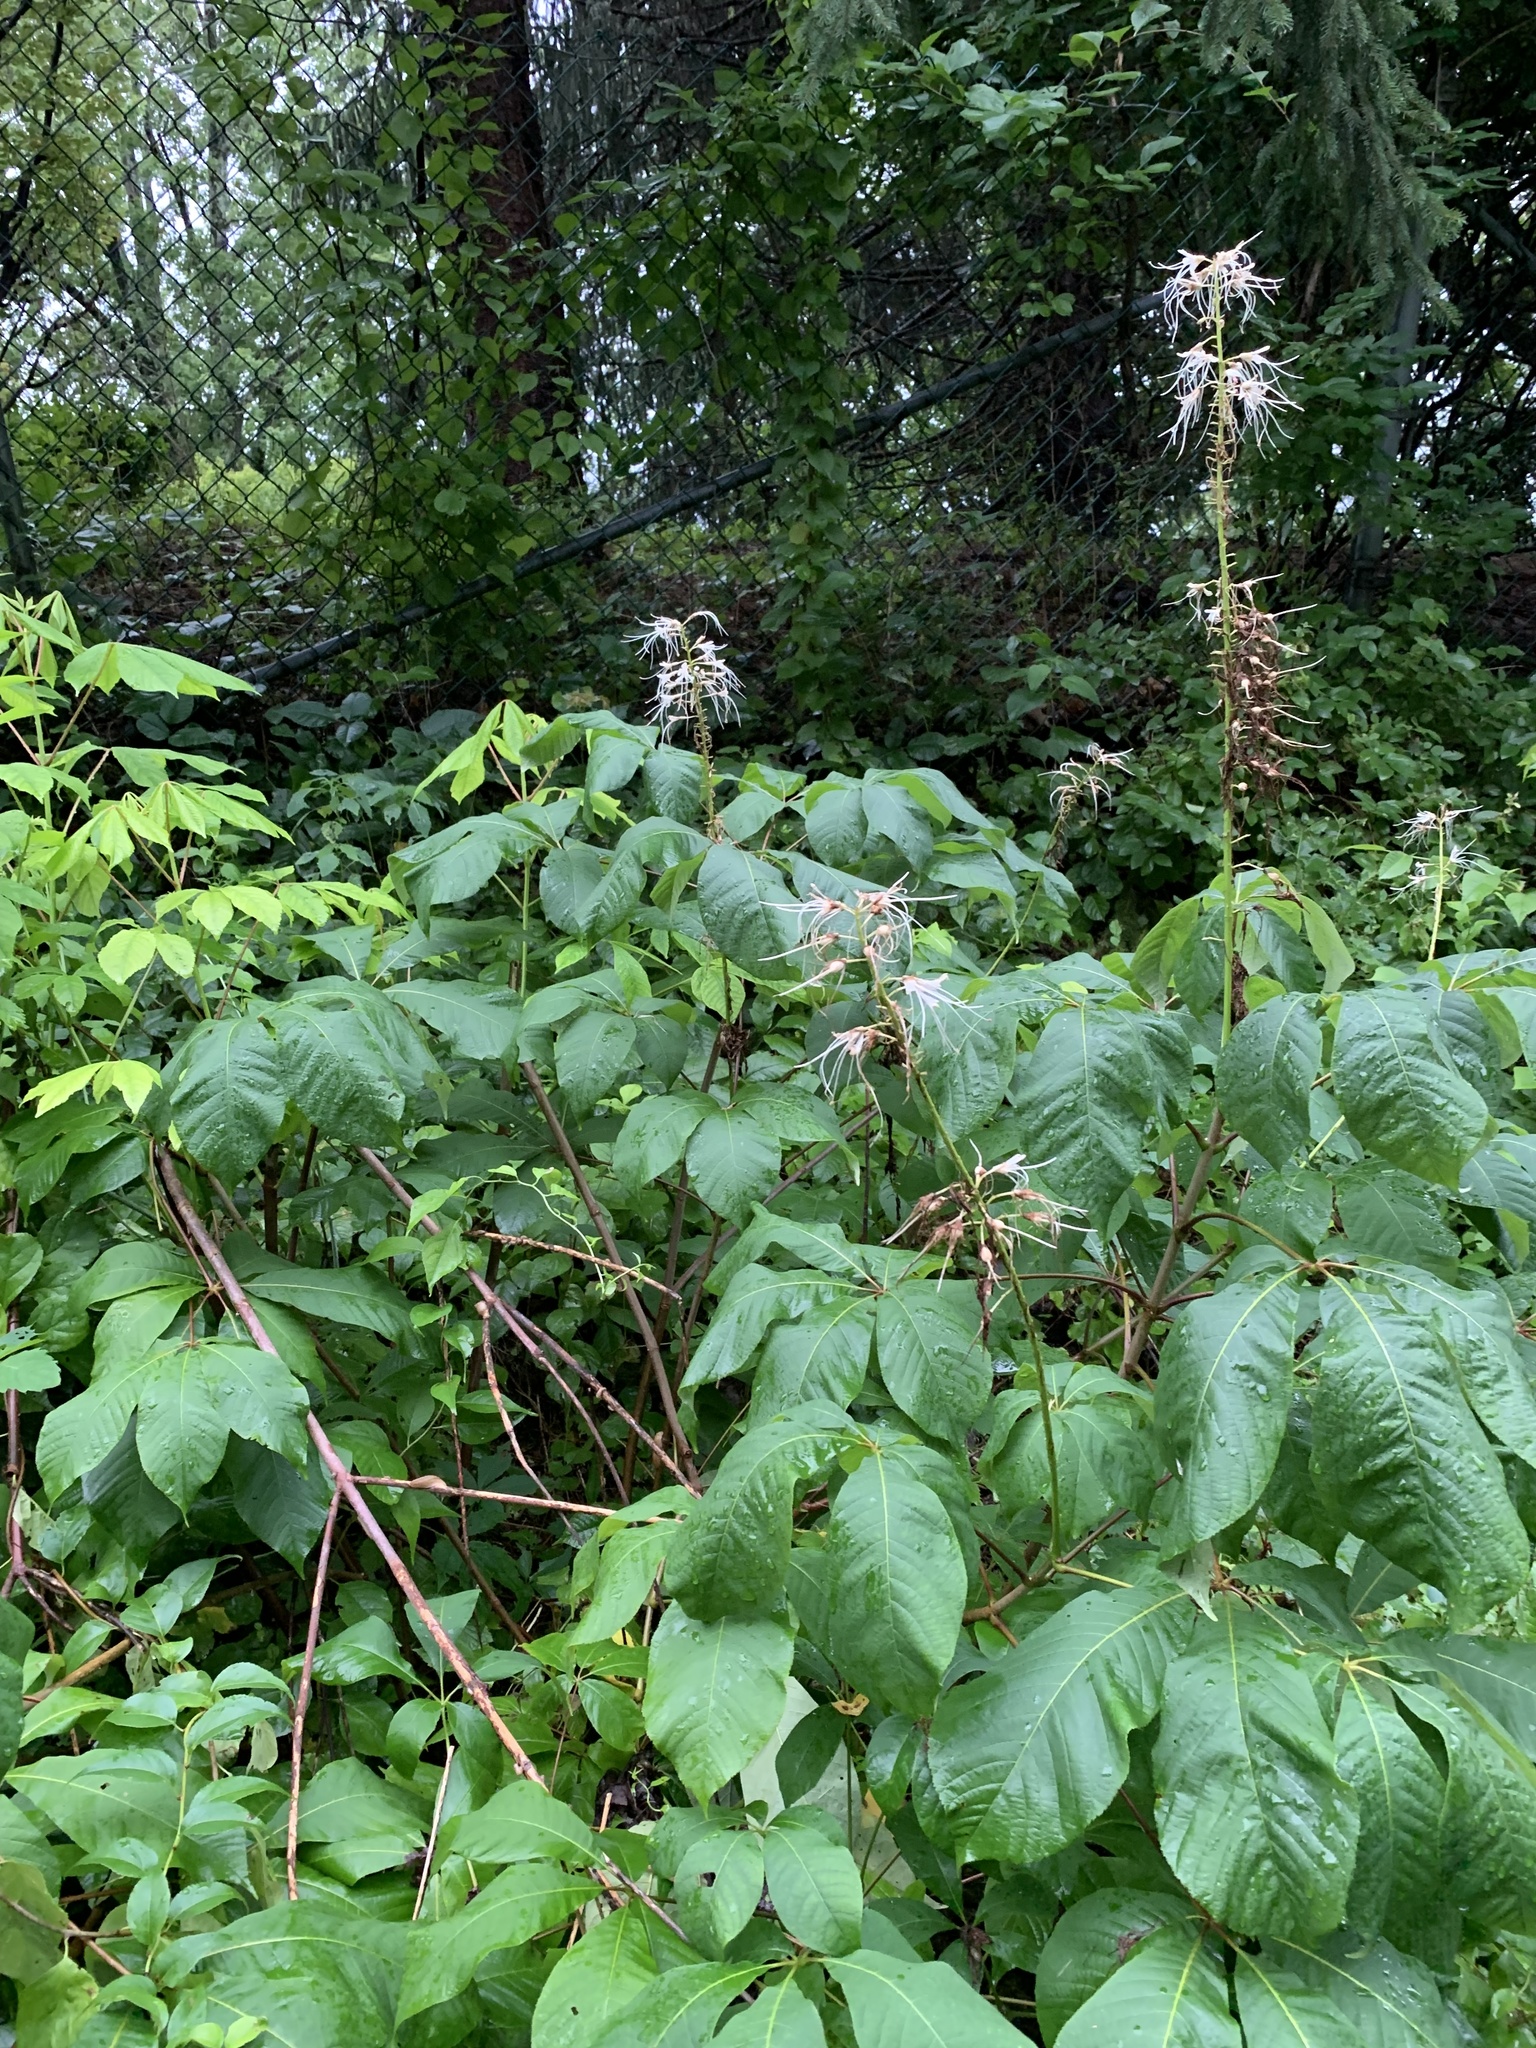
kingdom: Plantae
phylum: Tracheophyta
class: Magnoliopsida
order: Sapindales
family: Sapindaceae
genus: Aesculus
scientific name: Aesculus parviflora
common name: Bottlebrush buckeye
